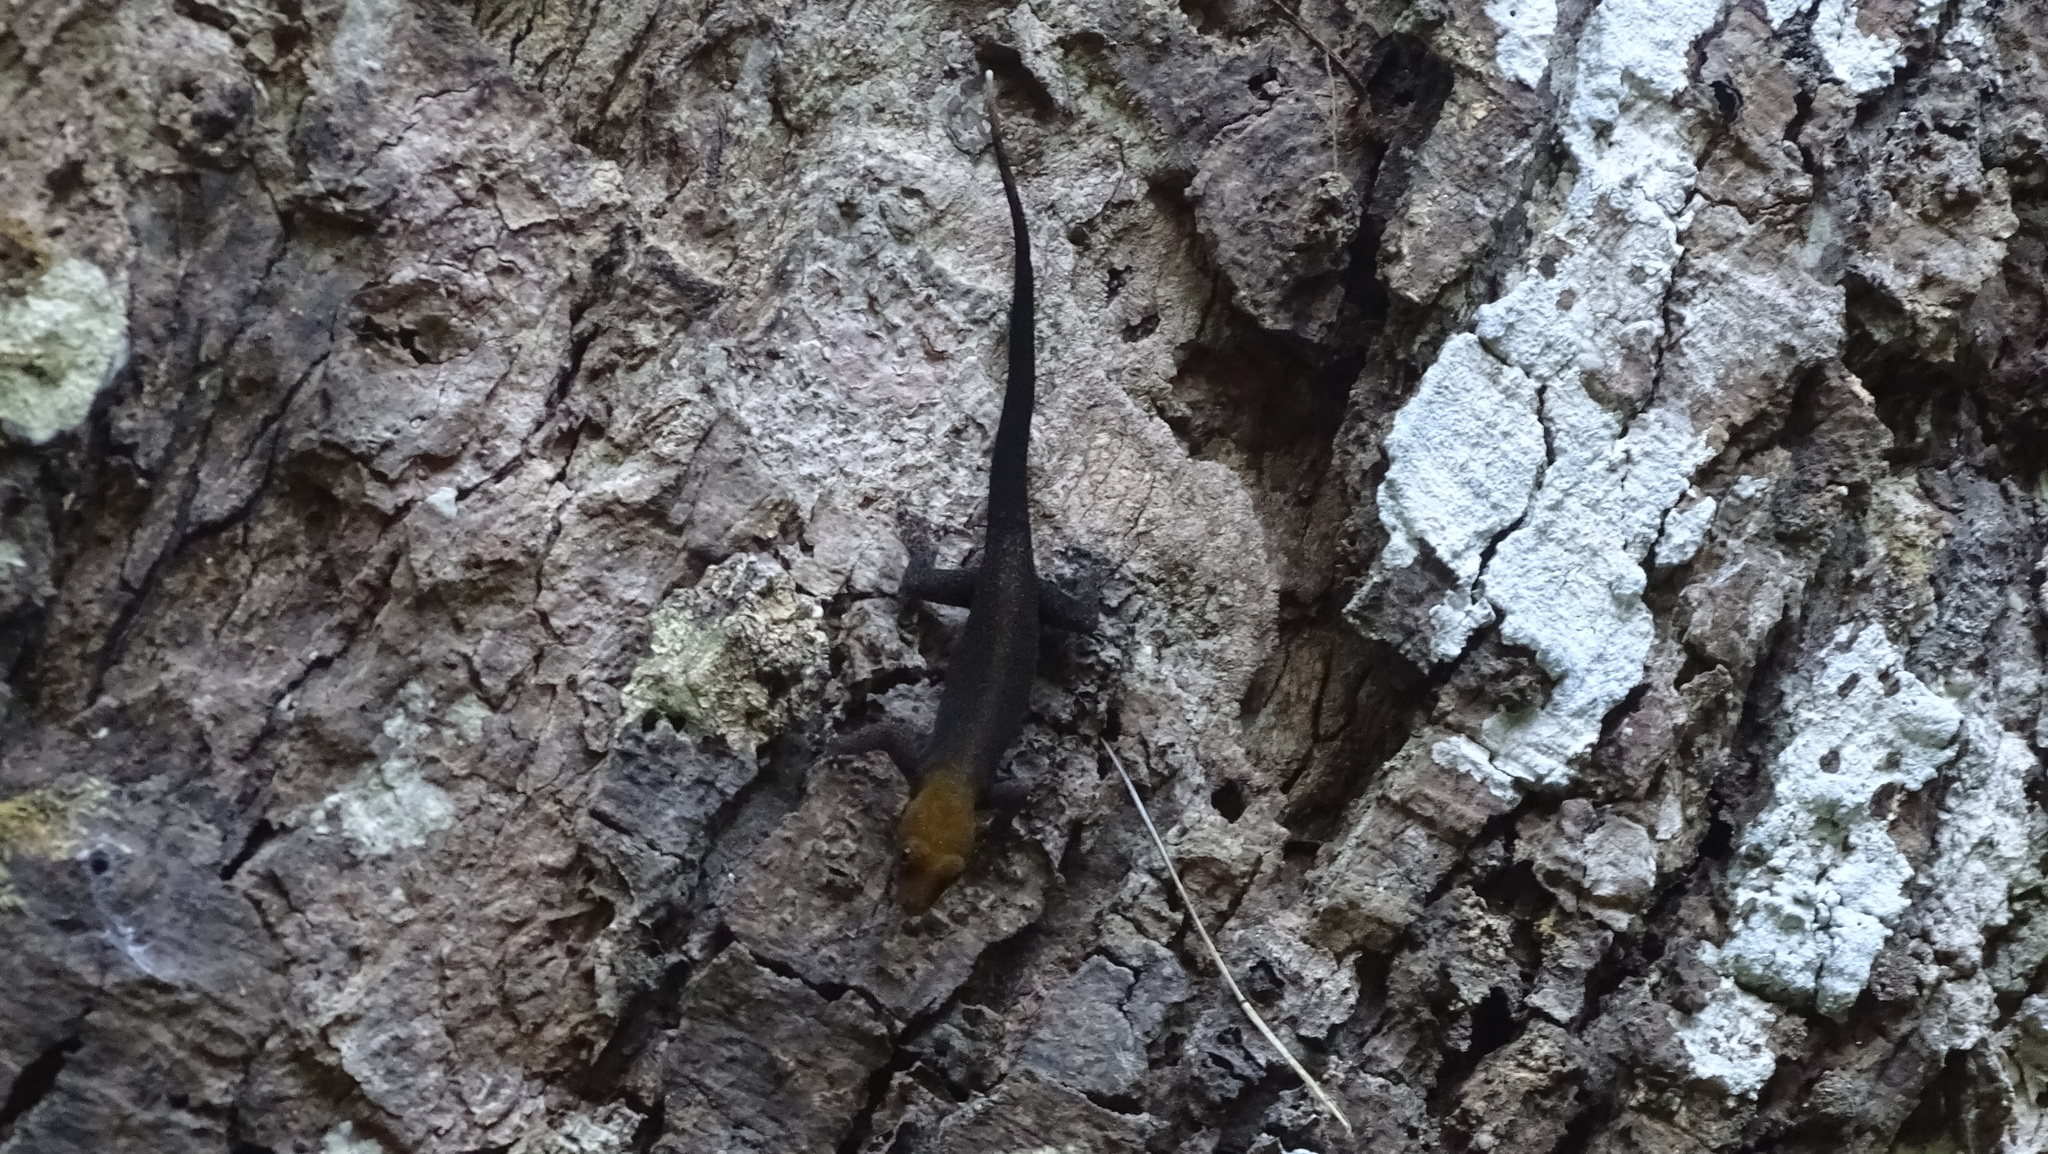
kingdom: Animalia
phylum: Chordata
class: Squamata
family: Sphaerodactylidae
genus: Gonatodes
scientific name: Gonatodes albogularis
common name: Yellow-headed gecko
